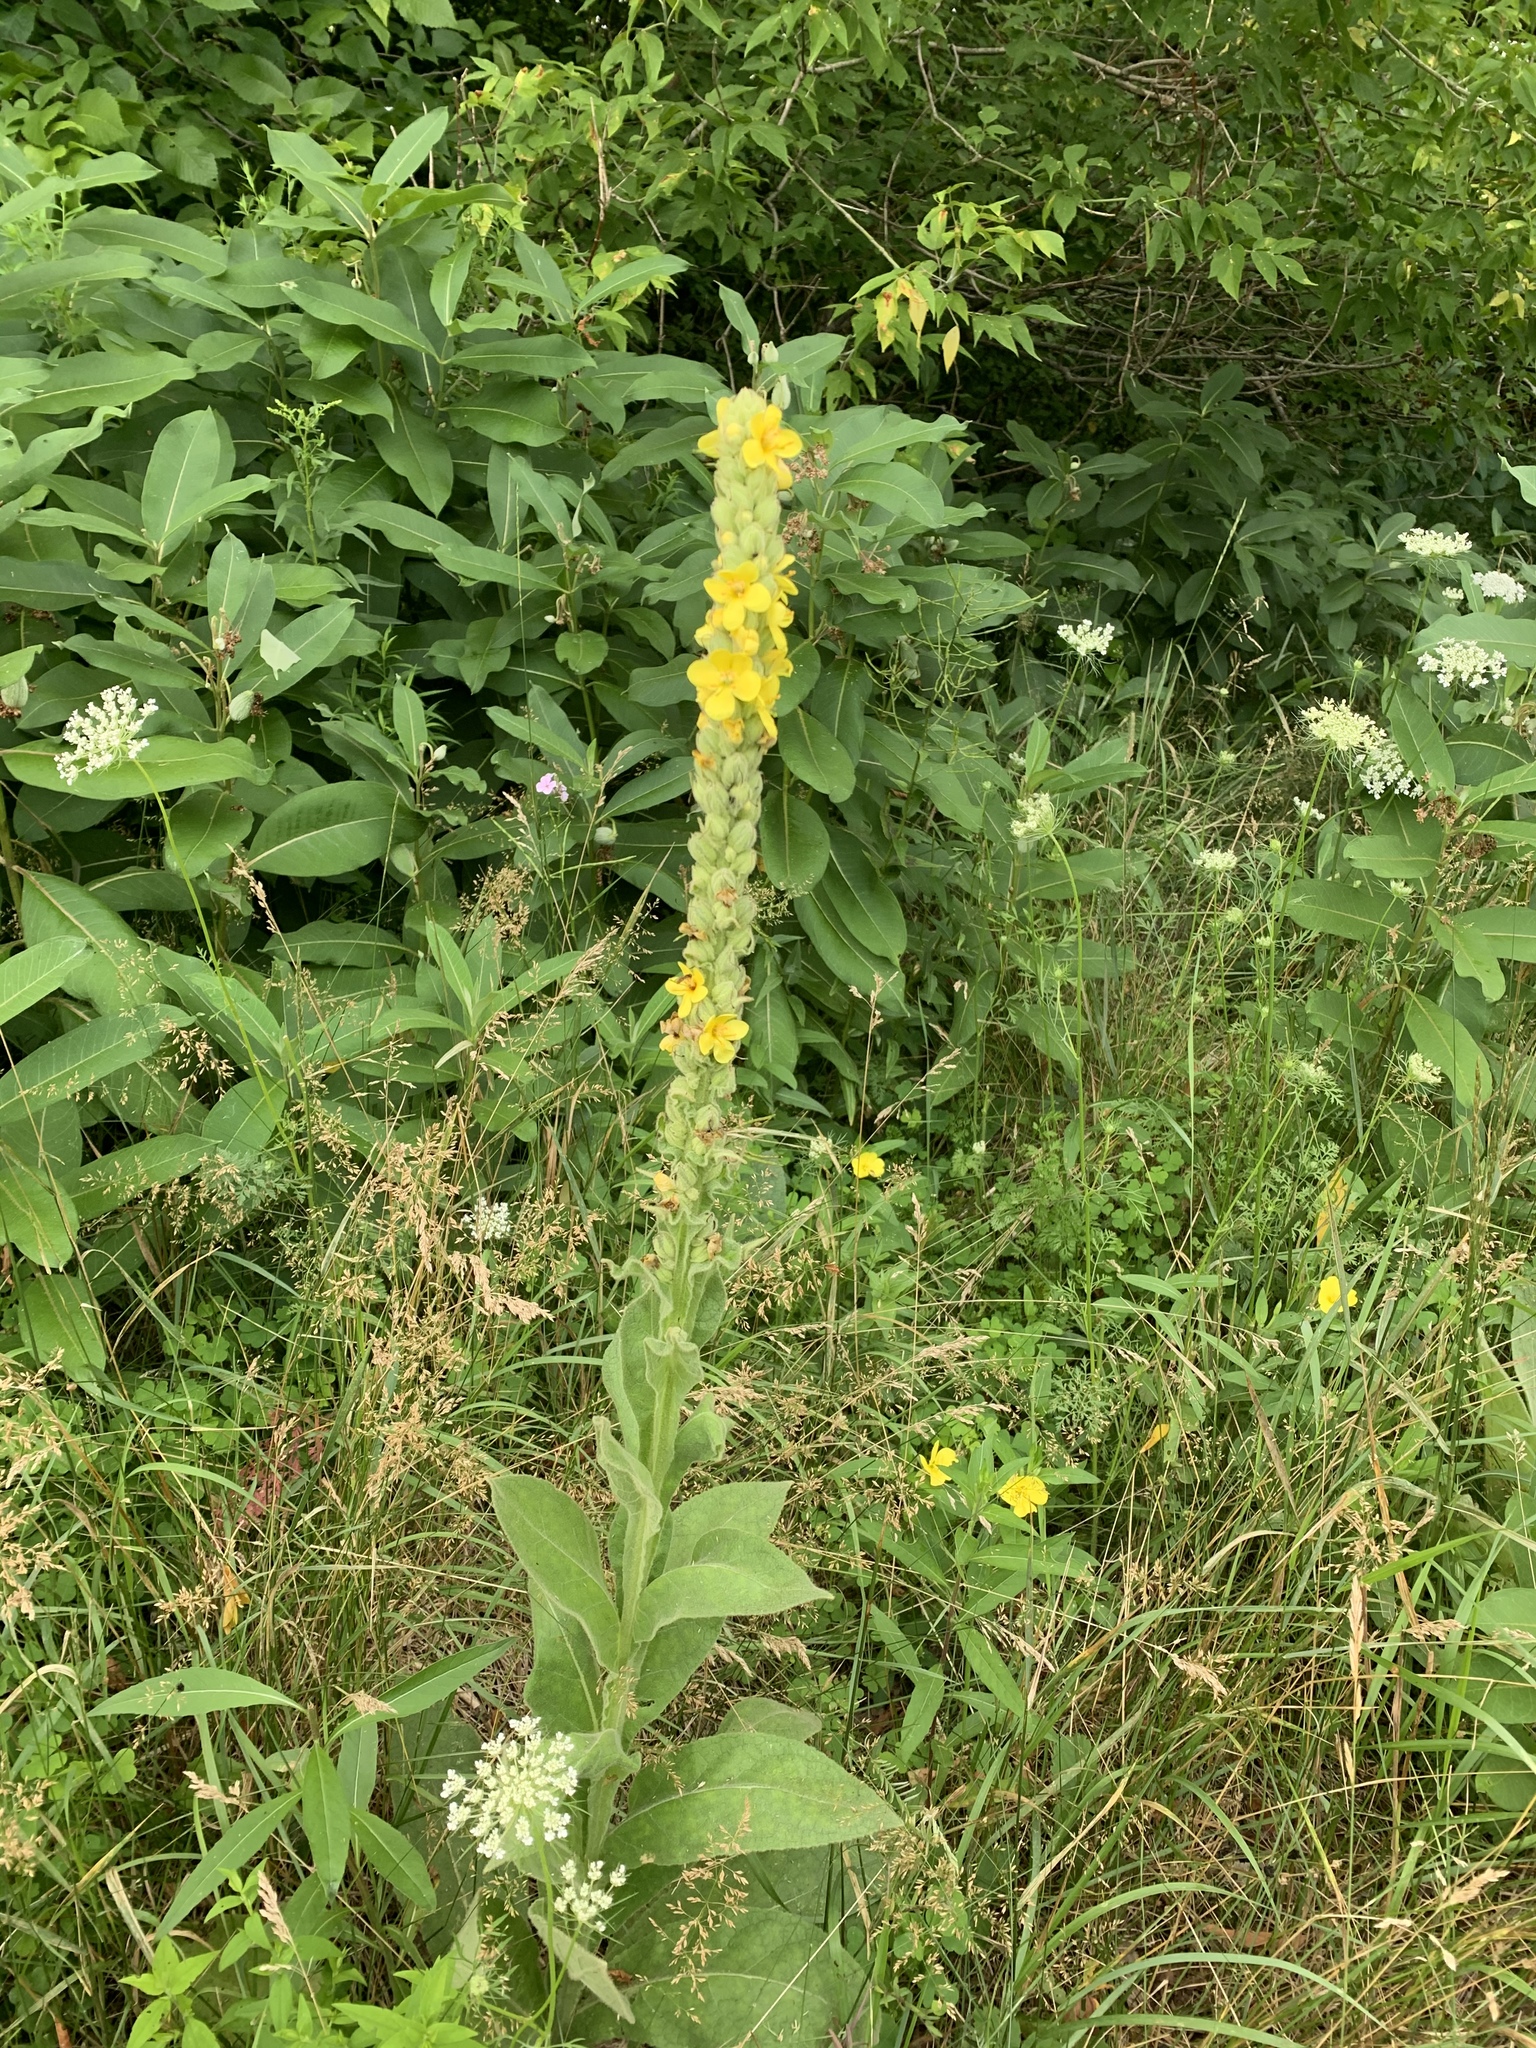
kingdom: Plantae
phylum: Tracheophyta
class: Magnoliopsida
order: Lamiales
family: Scrophulariaceae
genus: Verbascum
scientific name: Verbascum thapsus
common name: Common mullein
